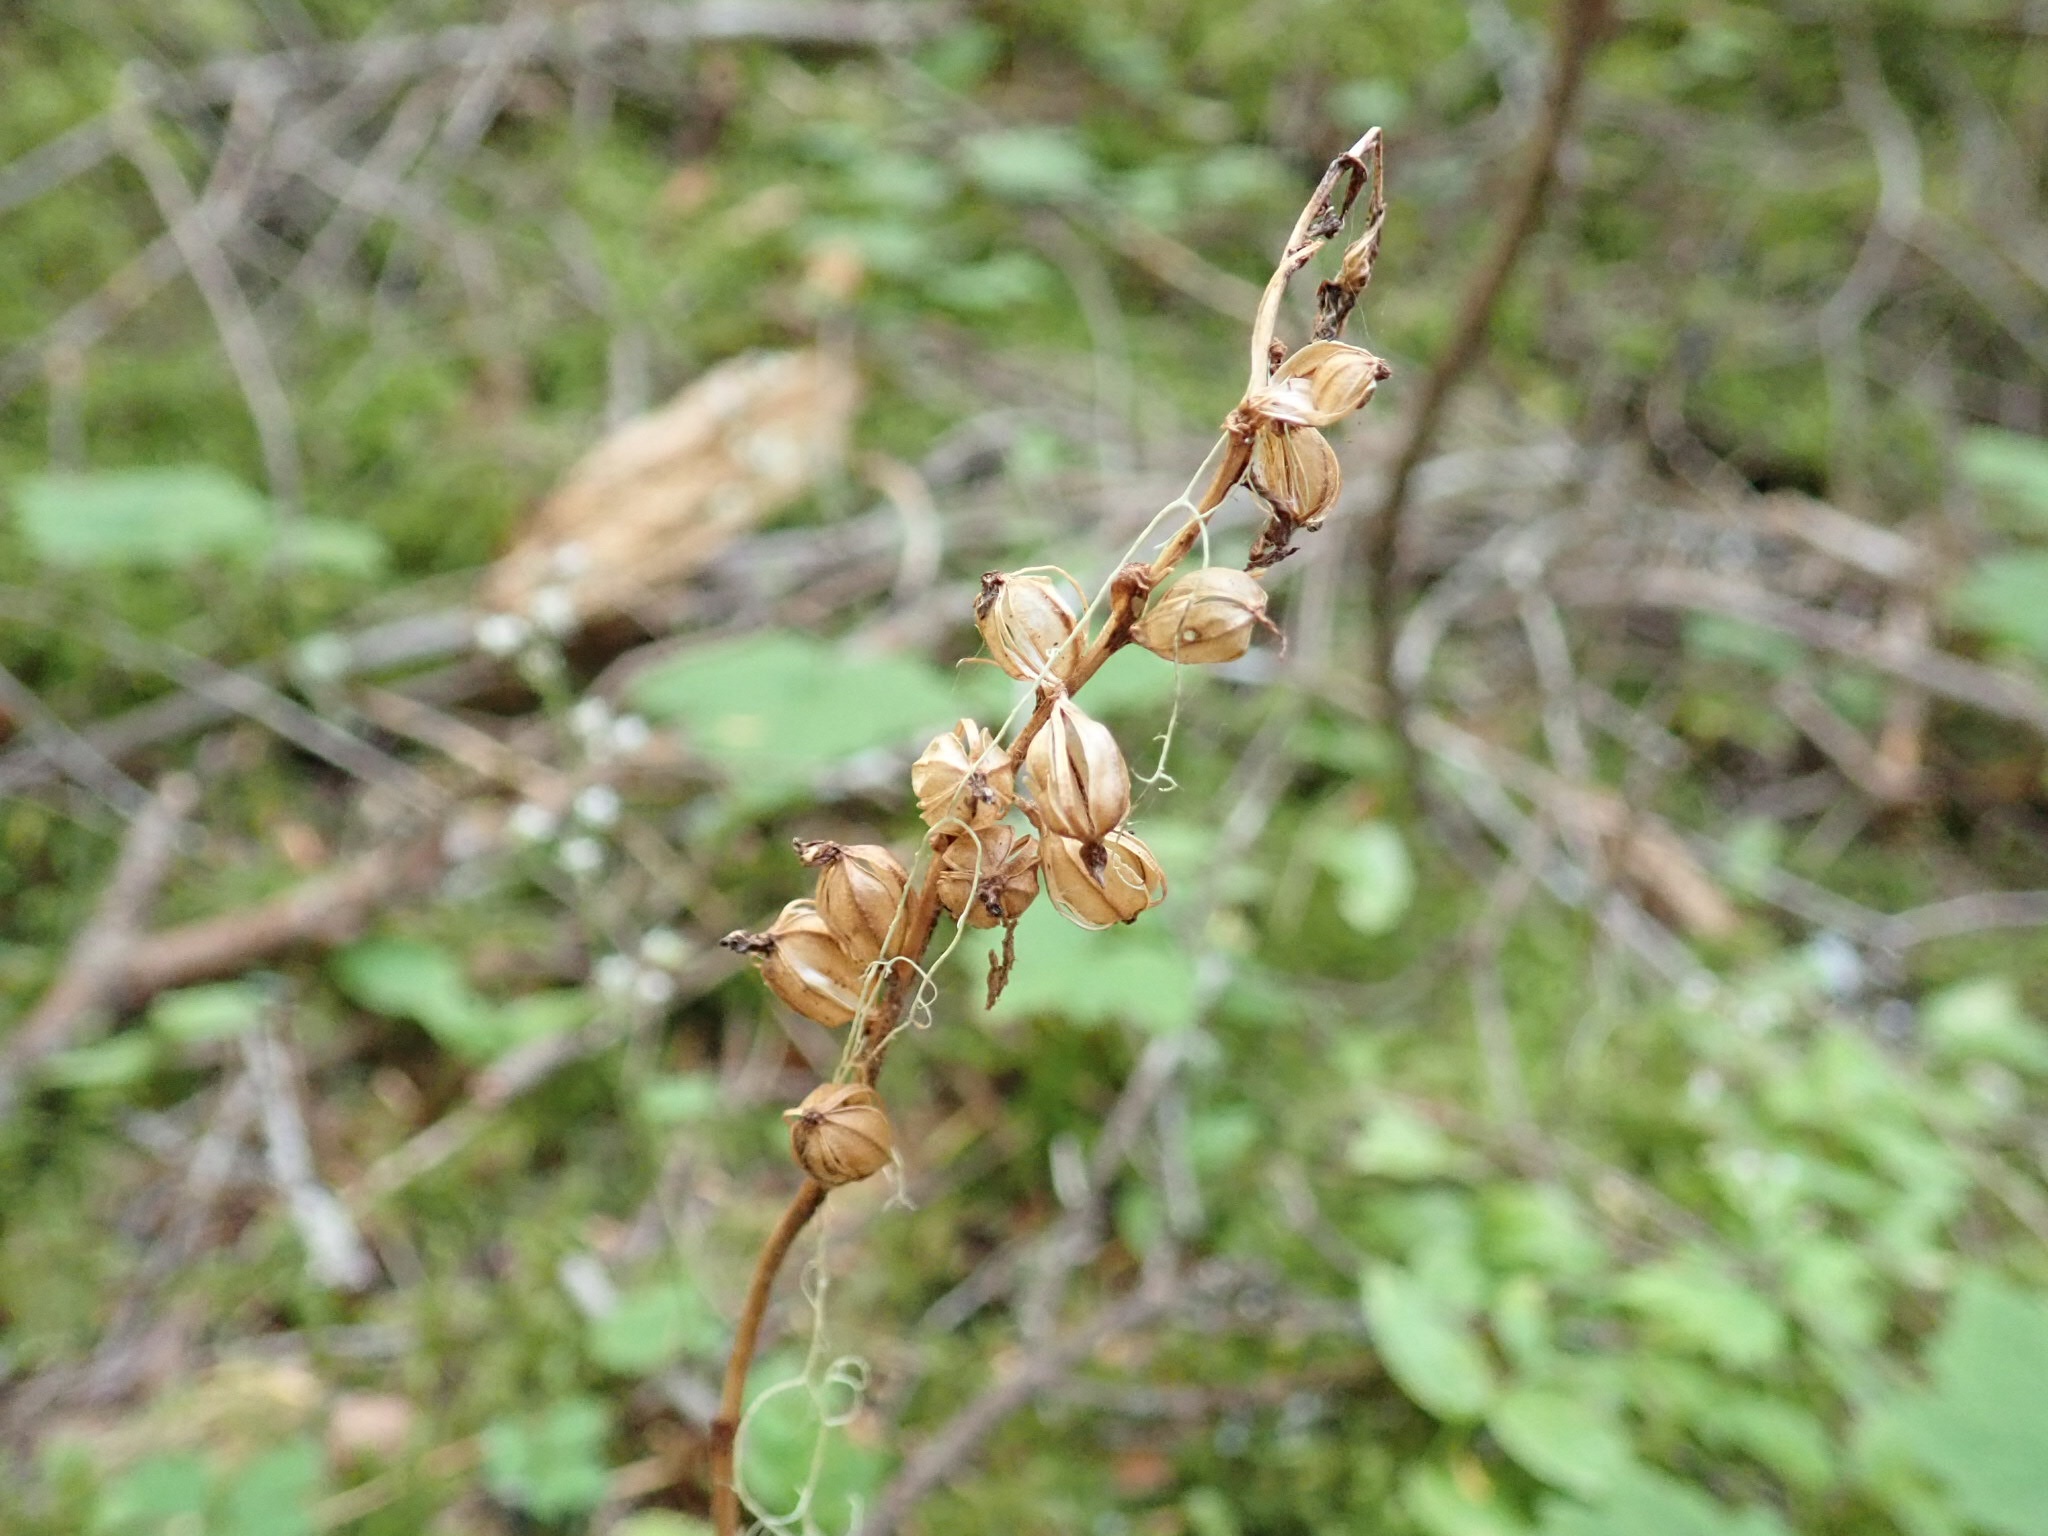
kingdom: Plantae
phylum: Tracheophyta
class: Liliopsida
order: Asparagales
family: Orchidaceae
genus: Goodyera
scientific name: Goodyera oblongifolia
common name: Giant rattlesnake-plantain
